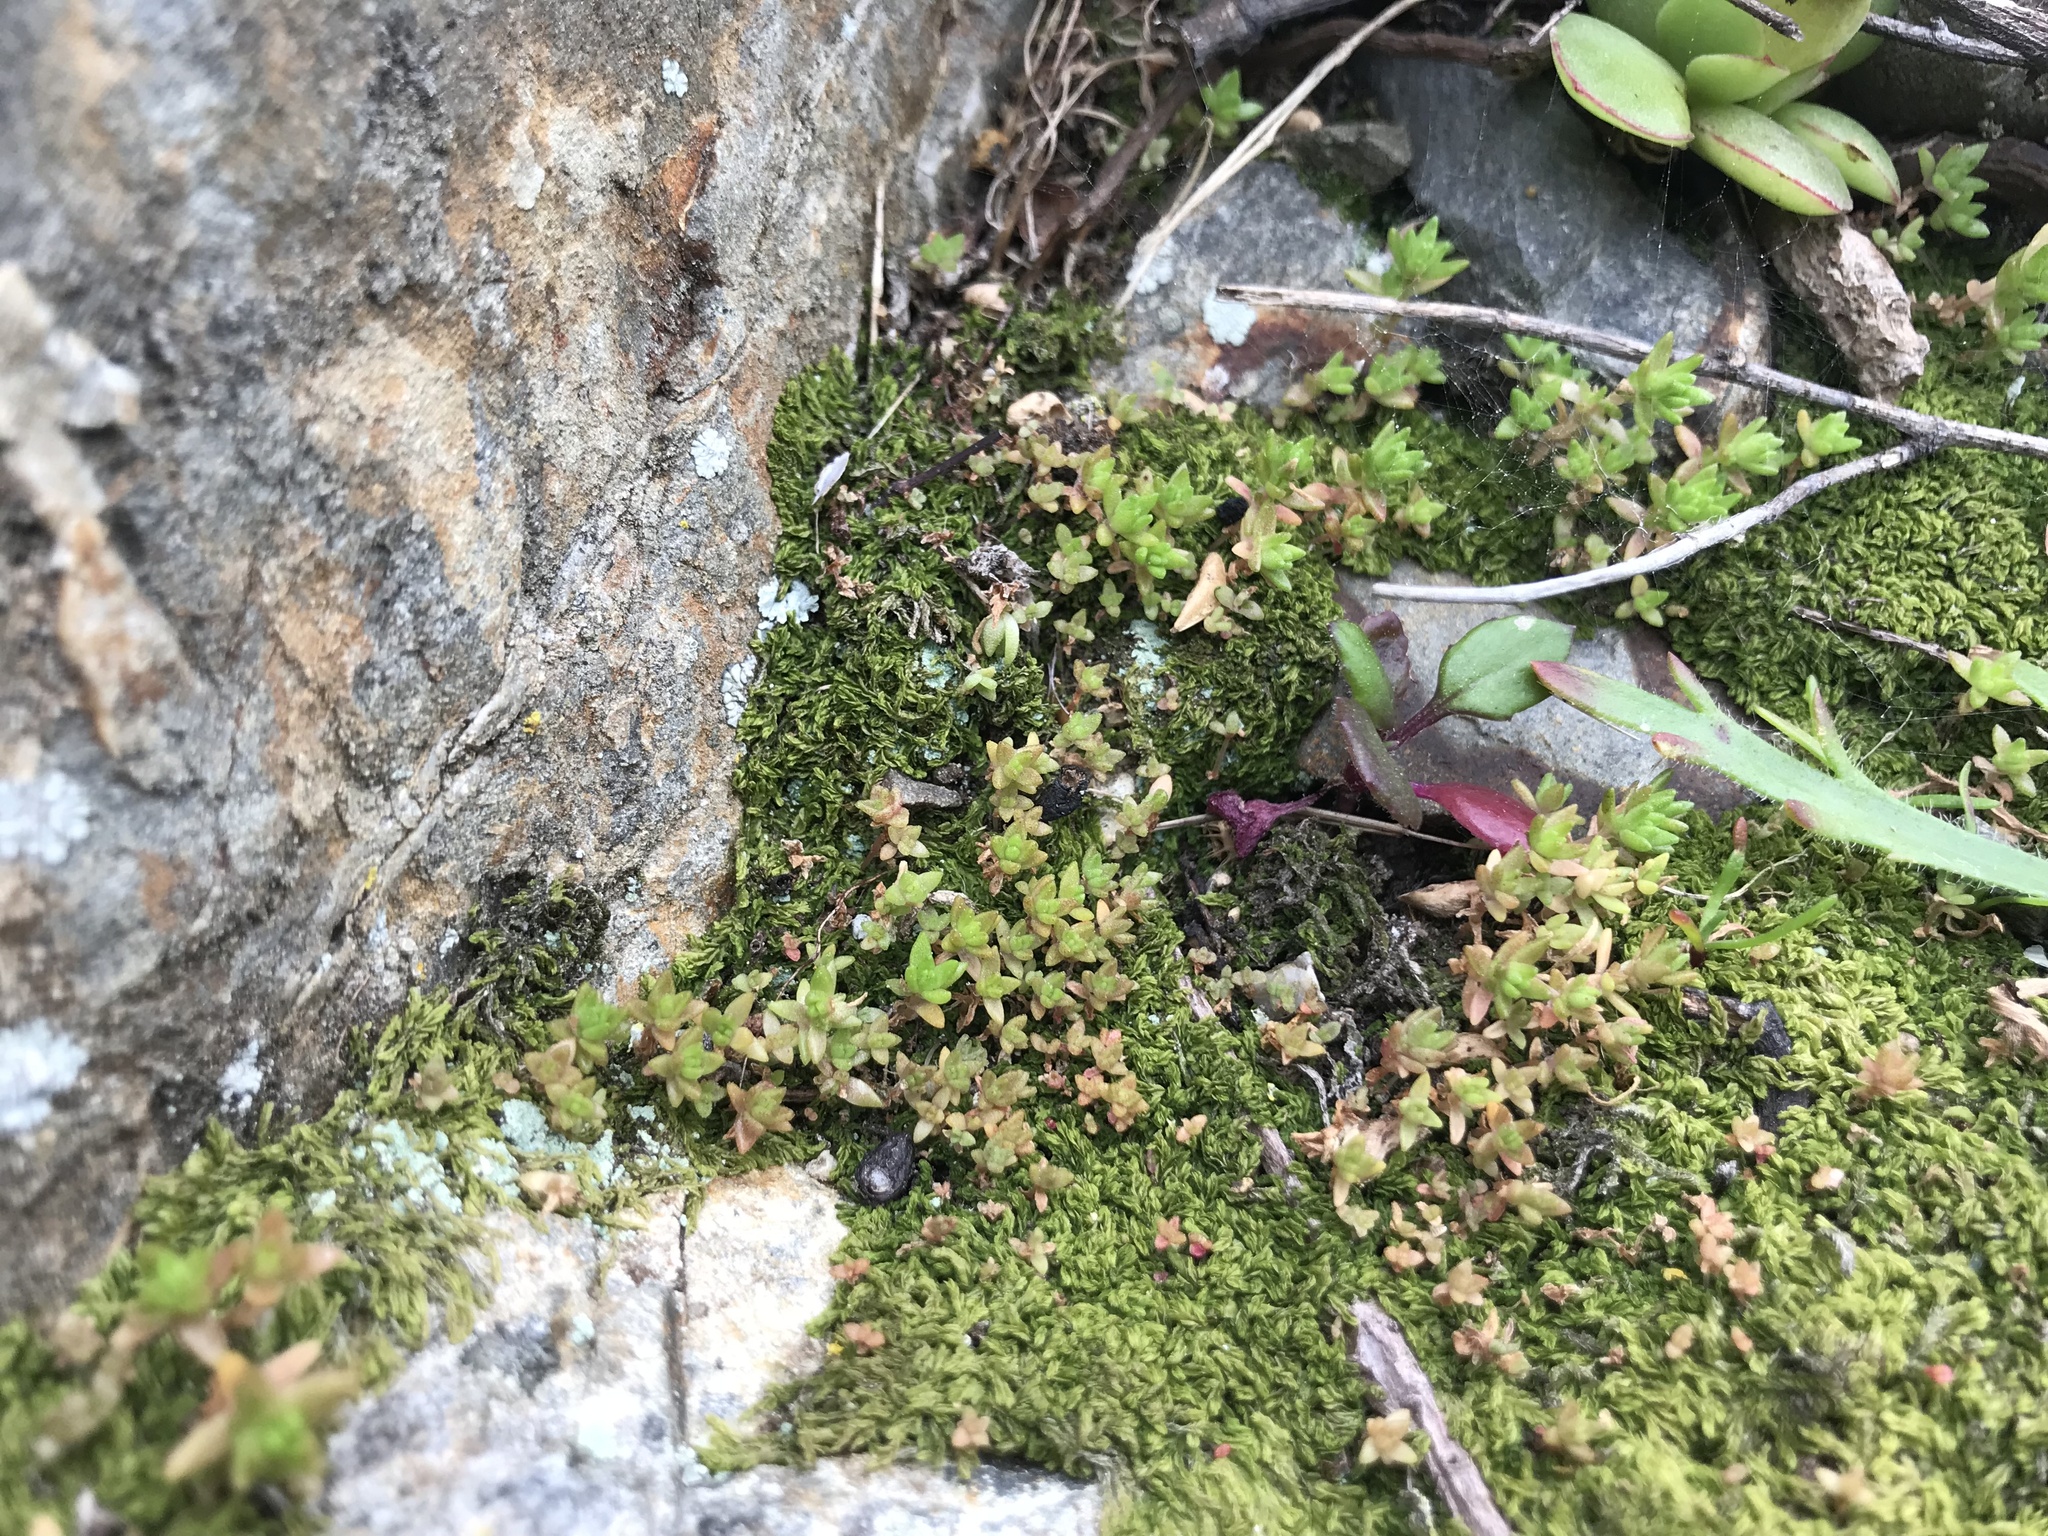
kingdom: Plantae
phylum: Tracheophyta
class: Magnoliopsida
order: Saxifragales
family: Crassulaceae
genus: Crassula
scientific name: Crassula moschata
